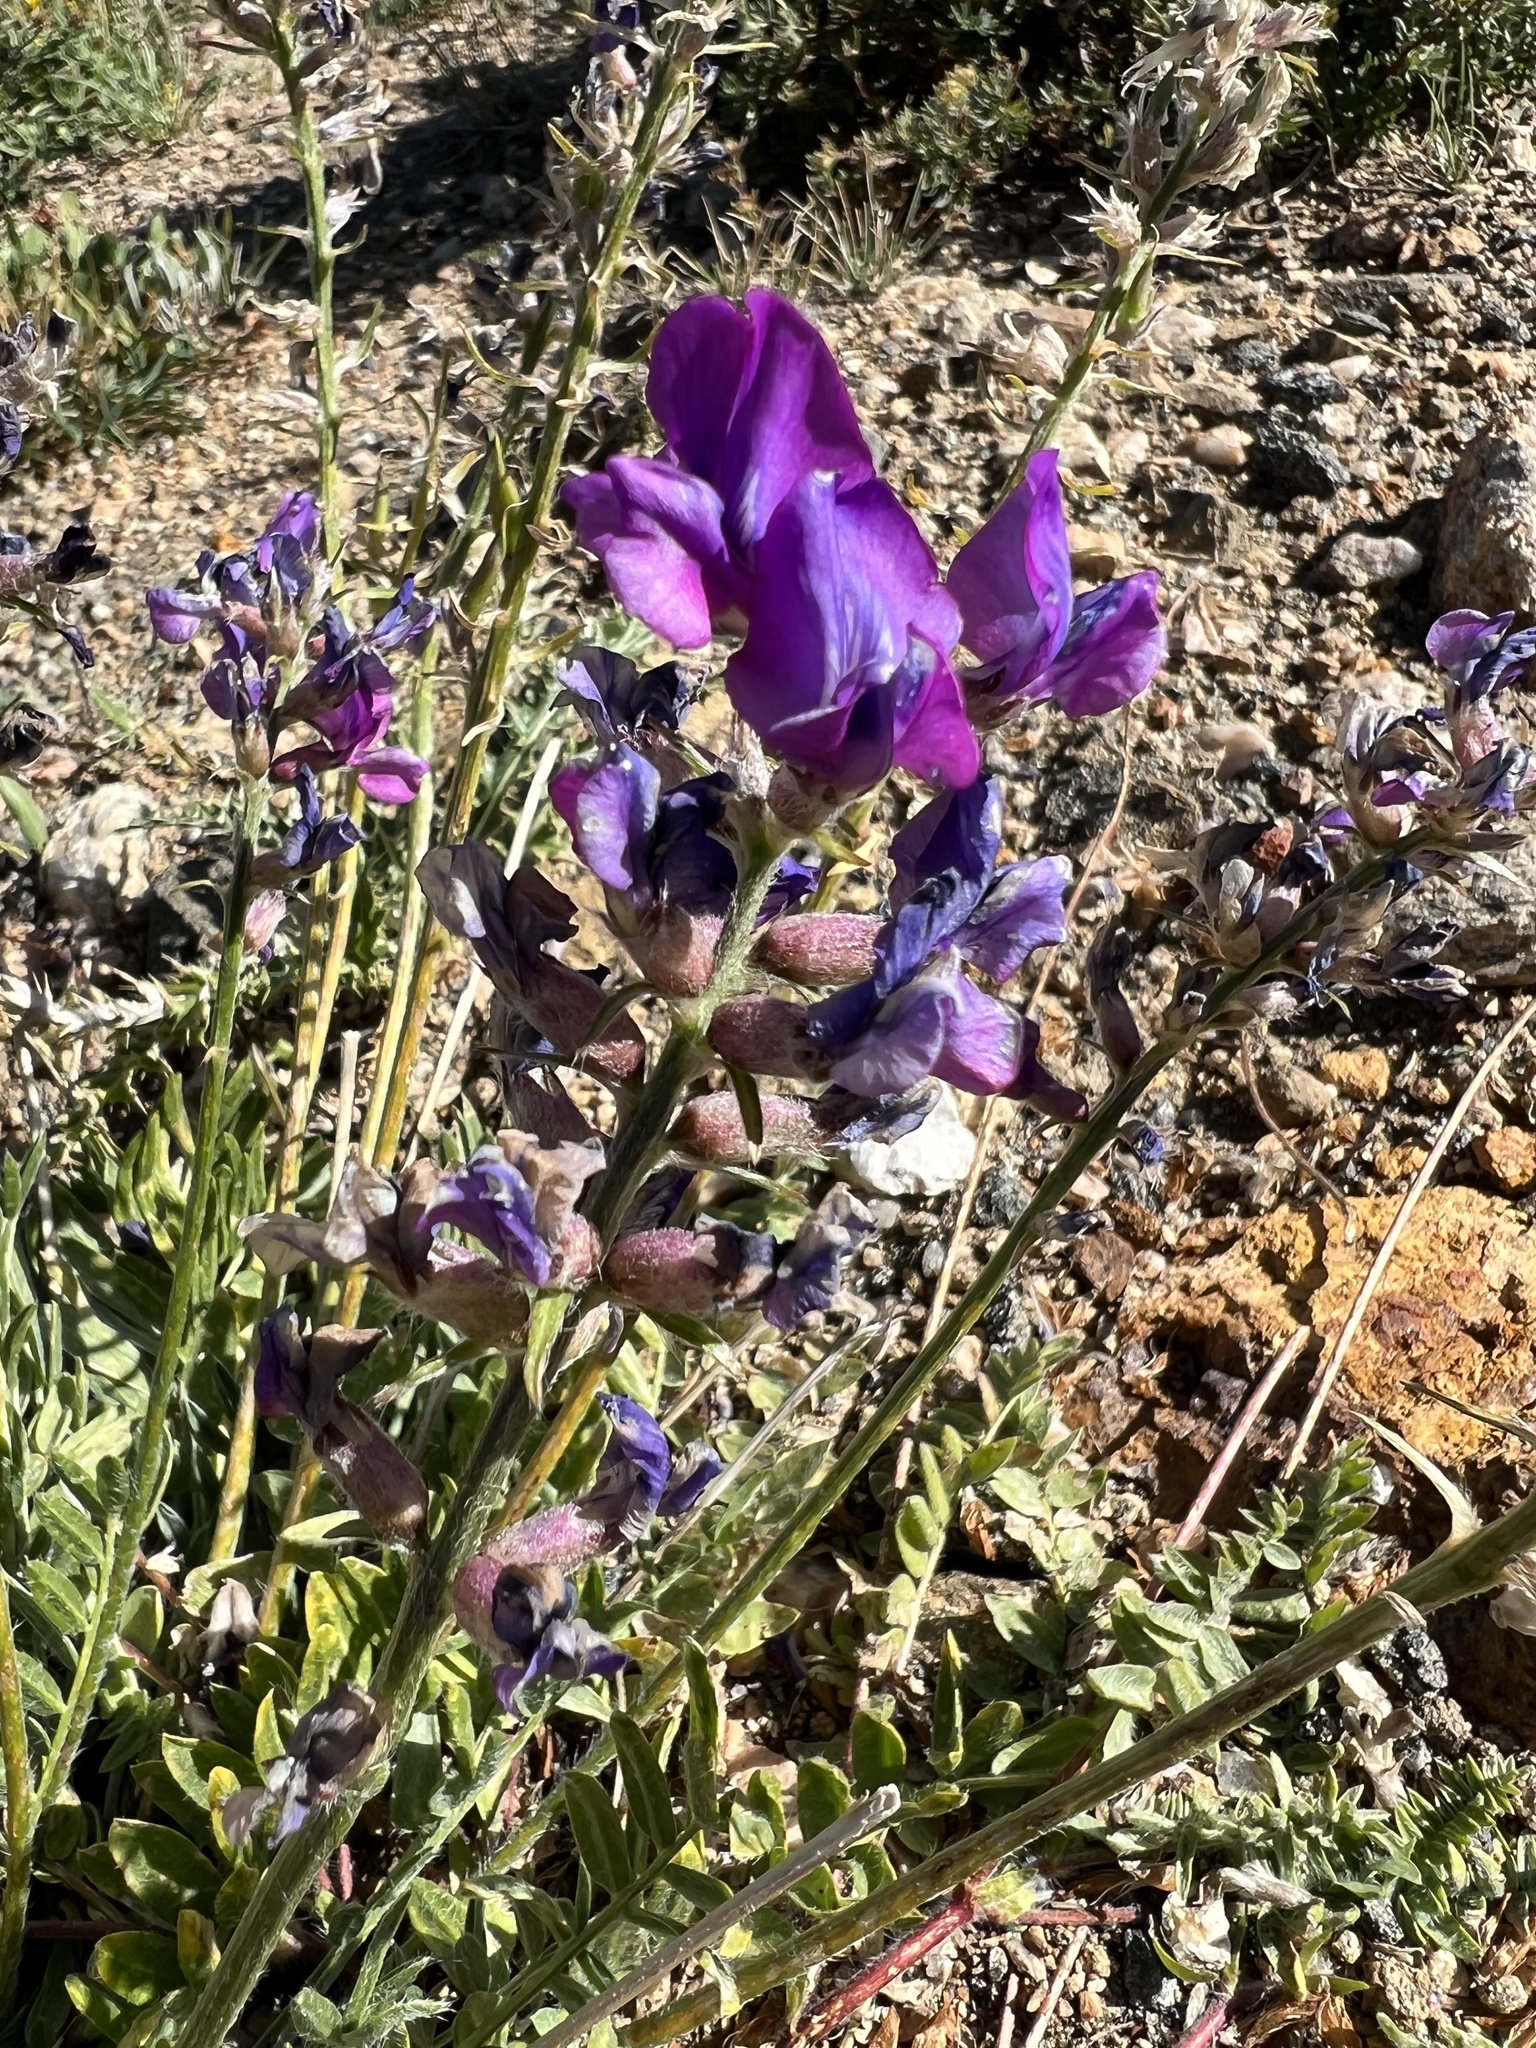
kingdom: Plantae
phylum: Tracheophyta
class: Magnoliopsida
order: Fabales
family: Fabaceae
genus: Oxytropis
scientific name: Oxytropis lambertii
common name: Purple locoweed
